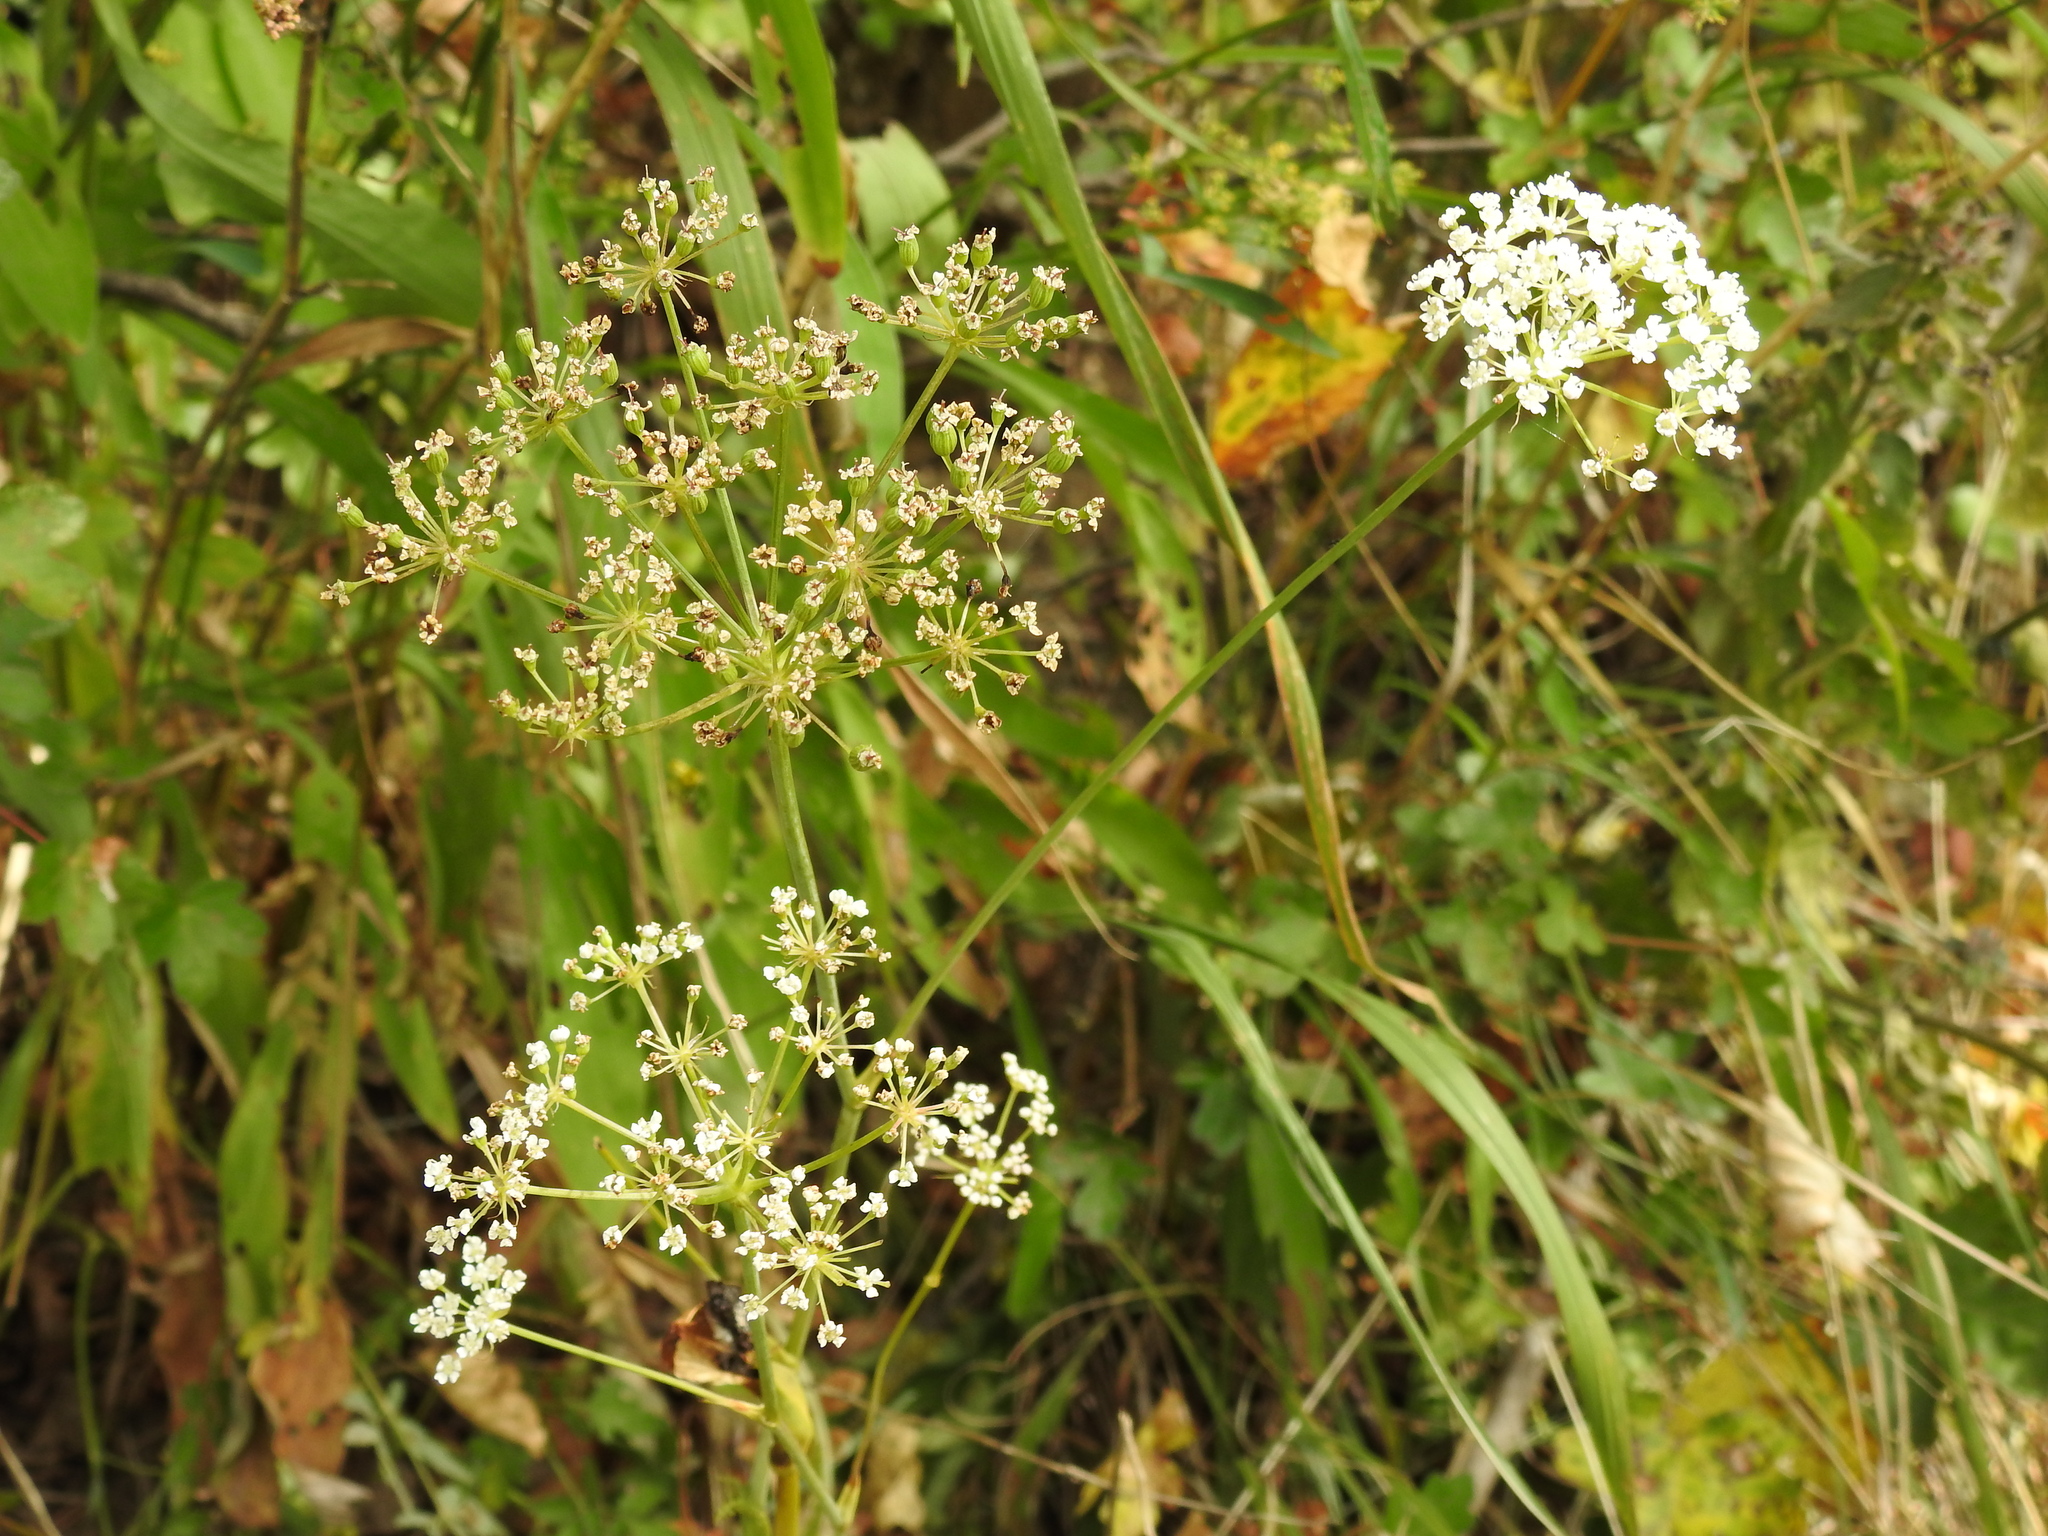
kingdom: Plantae
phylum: Tracheophyta
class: Magnoliopsida
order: Apiales
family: Apiaceae
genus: Cervaria
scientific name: Cervaria rivini
